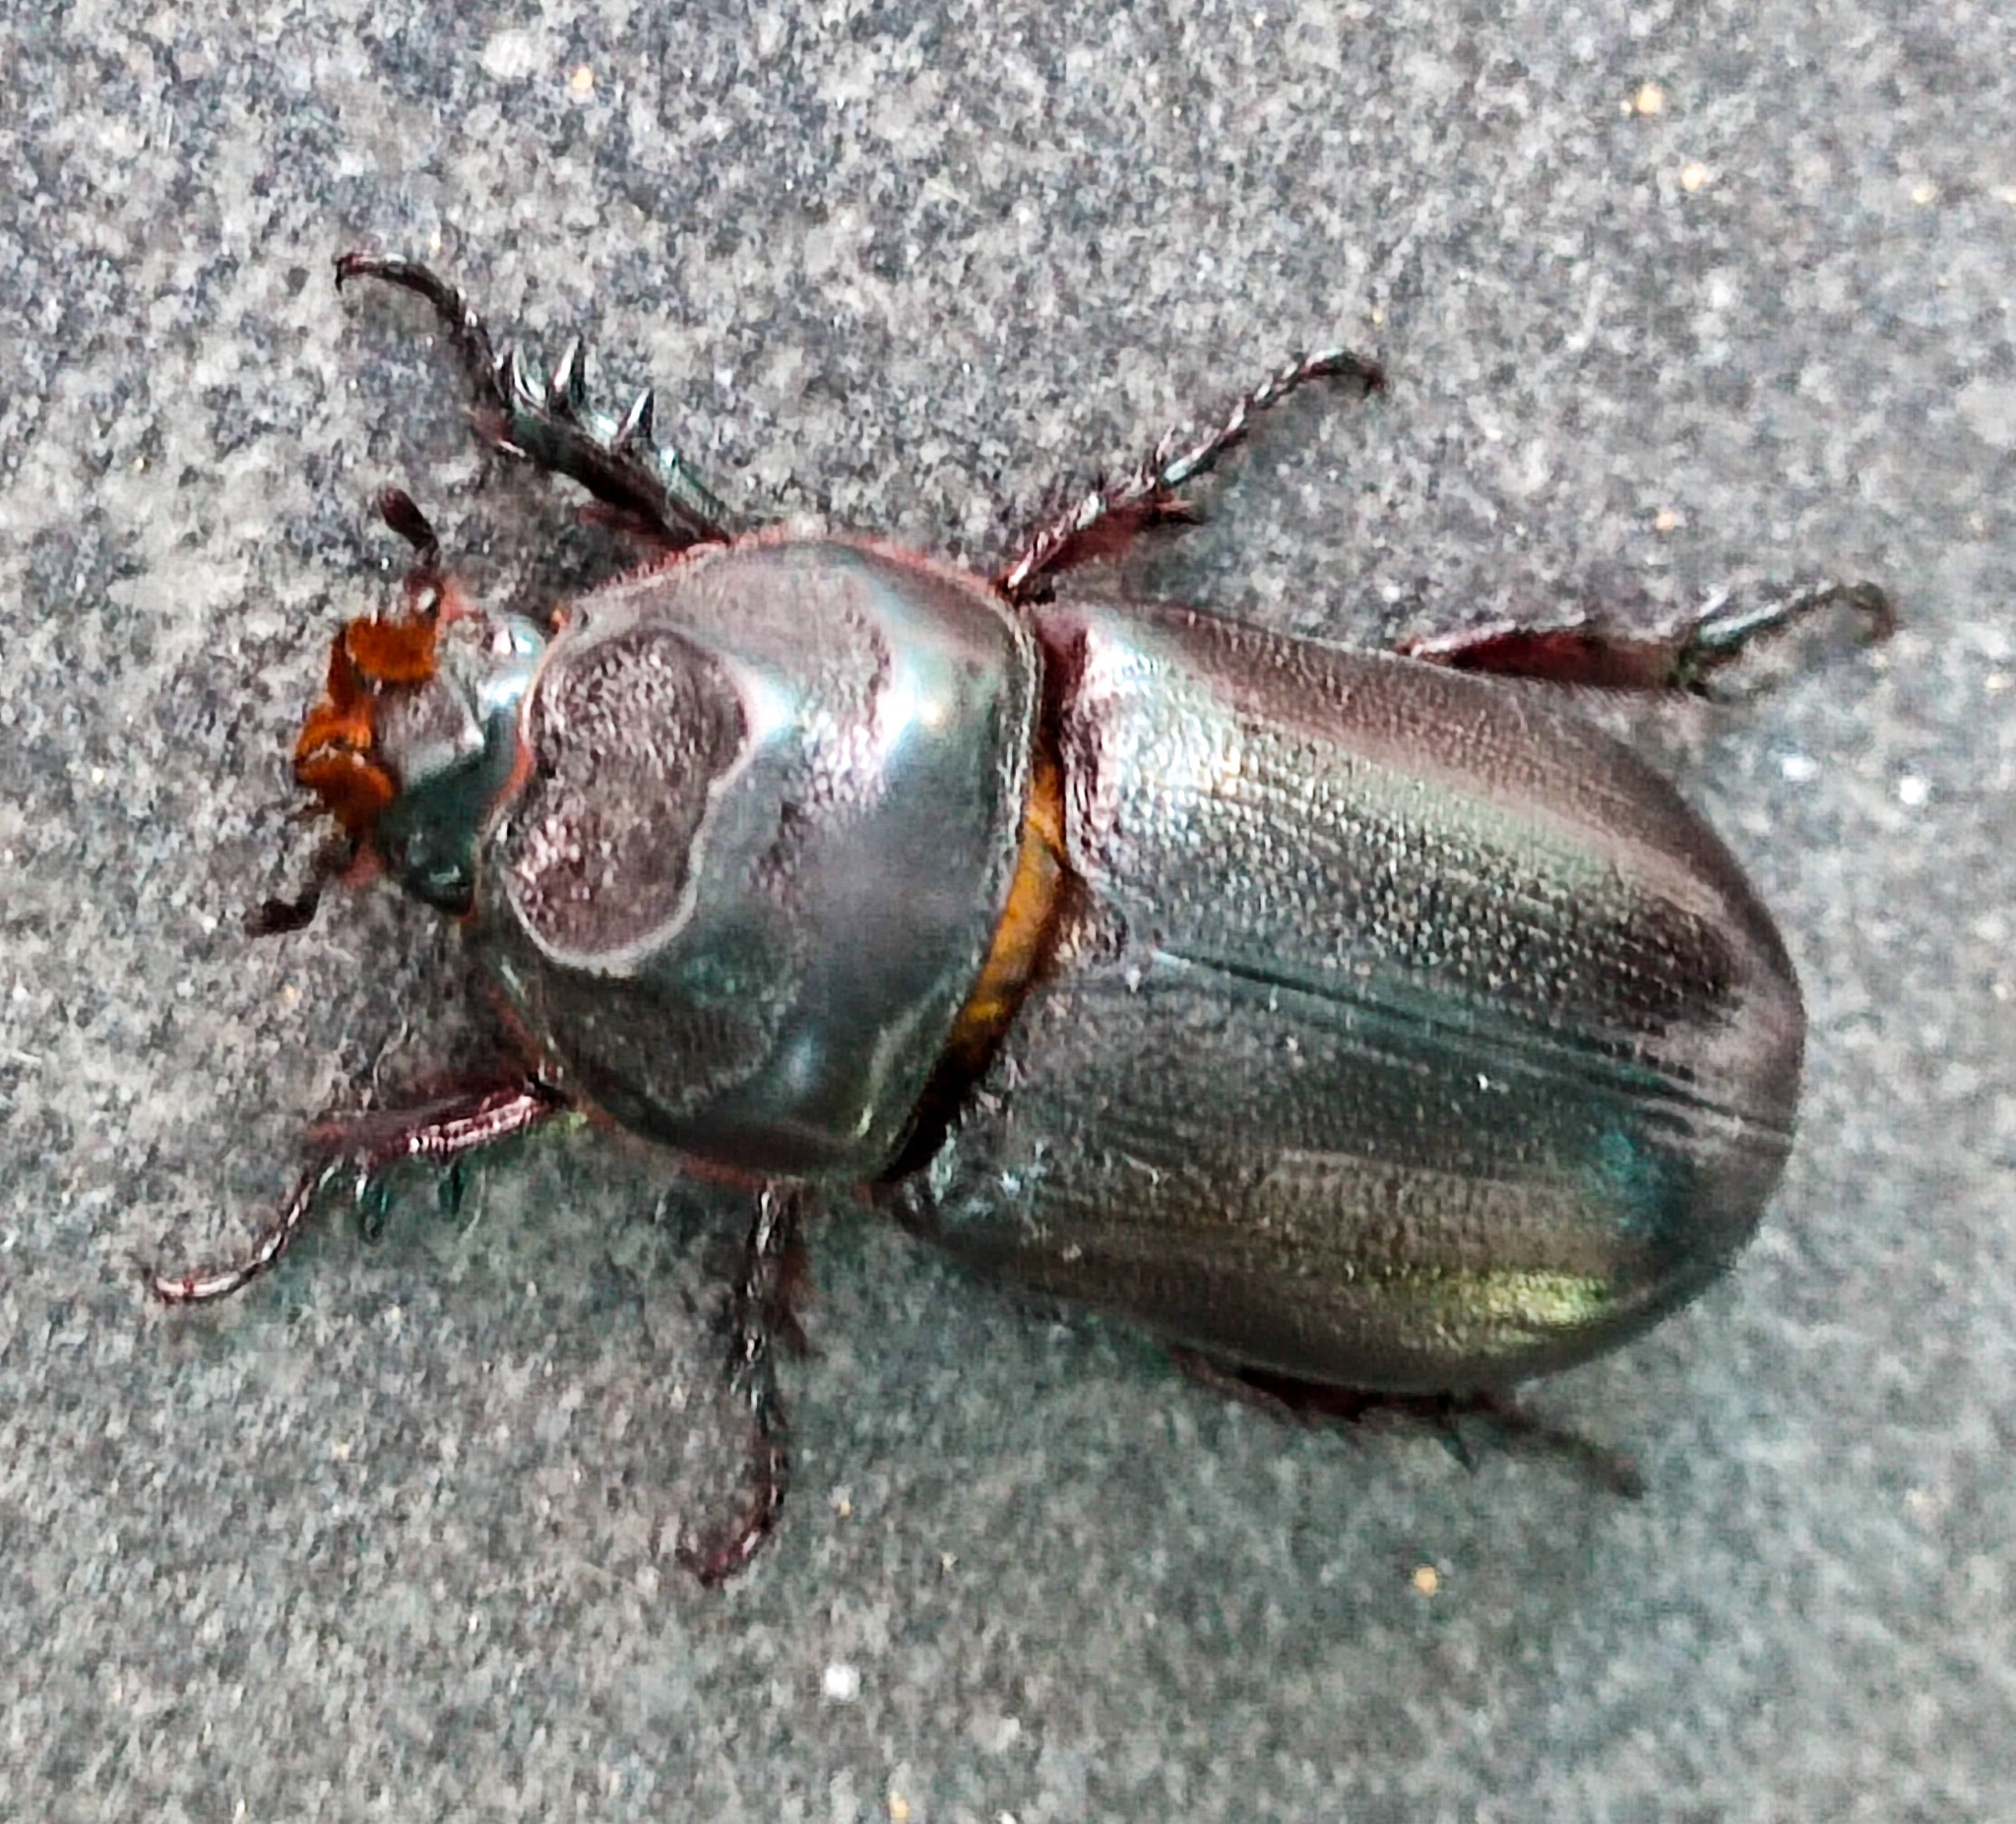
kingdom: Animalia
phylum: Arthropoda
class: Insecta
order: Coleoptera
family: Scarabaeidae
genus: Oryctes
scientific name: Oryctes rhinoceros
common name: Coconut rhinoceros beetle
